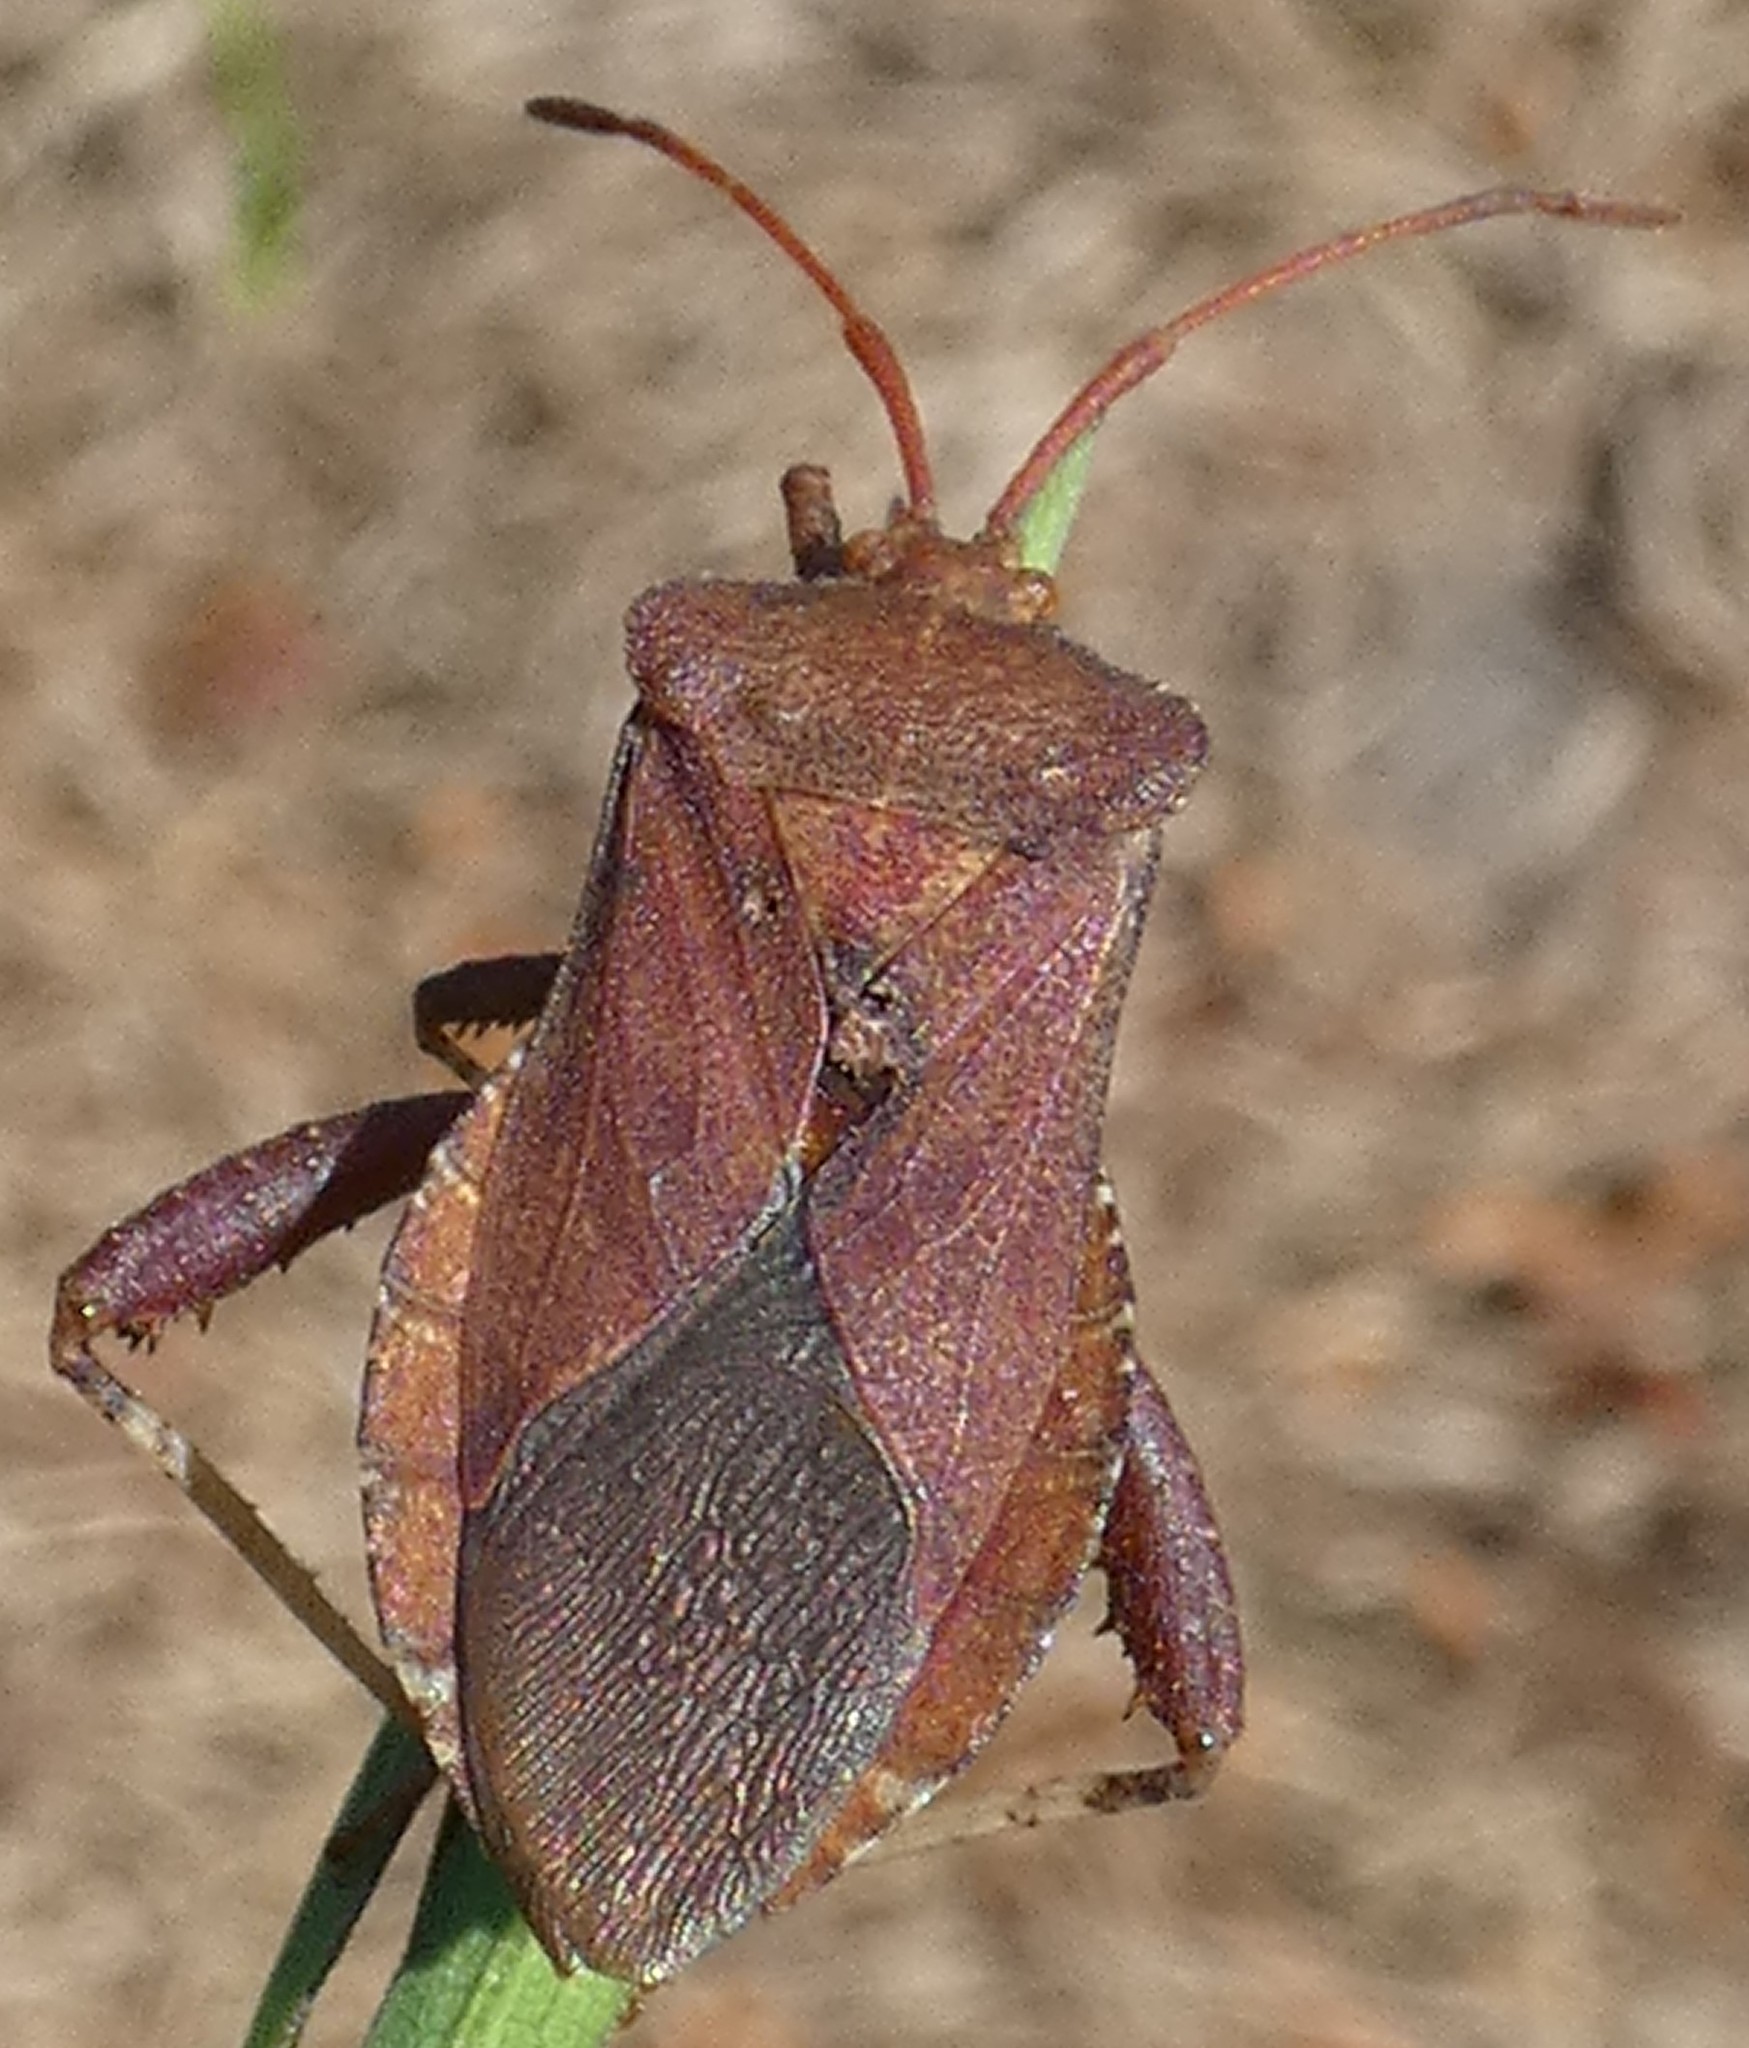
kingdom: Animalia
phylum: Arthropoda
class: Insecta
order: Hemiptera
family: Coreidae
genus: Euthochtha
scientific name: Euthochtha galeator
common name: Helmeted squash bug
